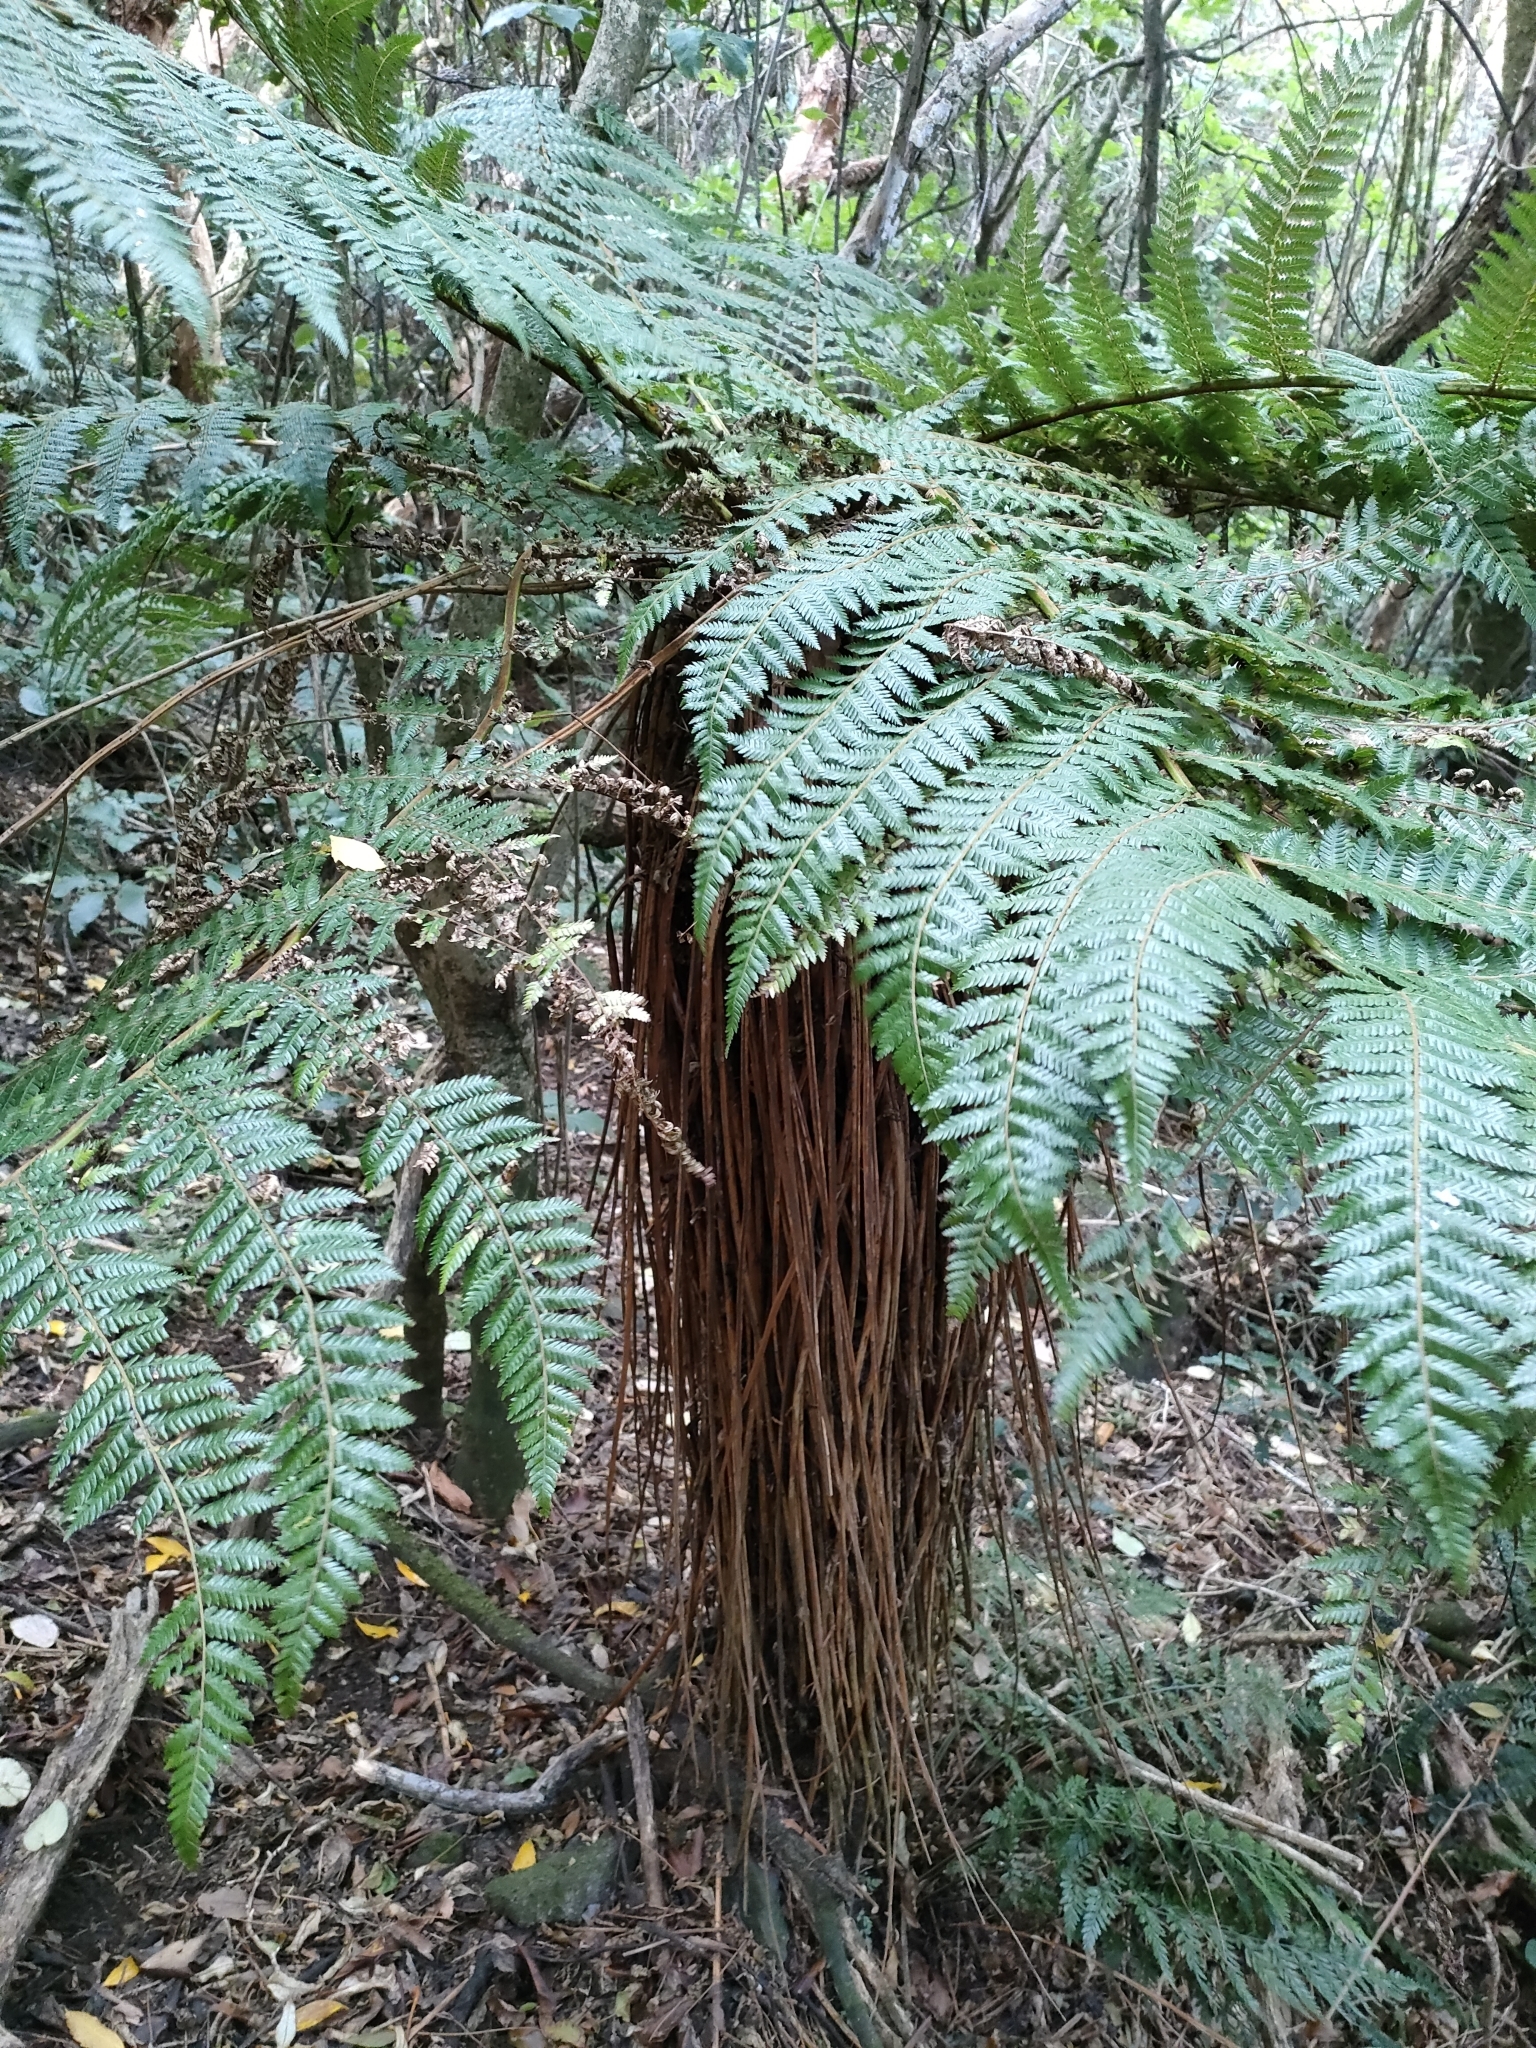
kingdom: Plantae
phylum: Tracheophyta
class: Polypodiopsida
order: Cyatheales
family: Cyatheaceae
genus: Alsophila
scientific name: Alsophila smithii
